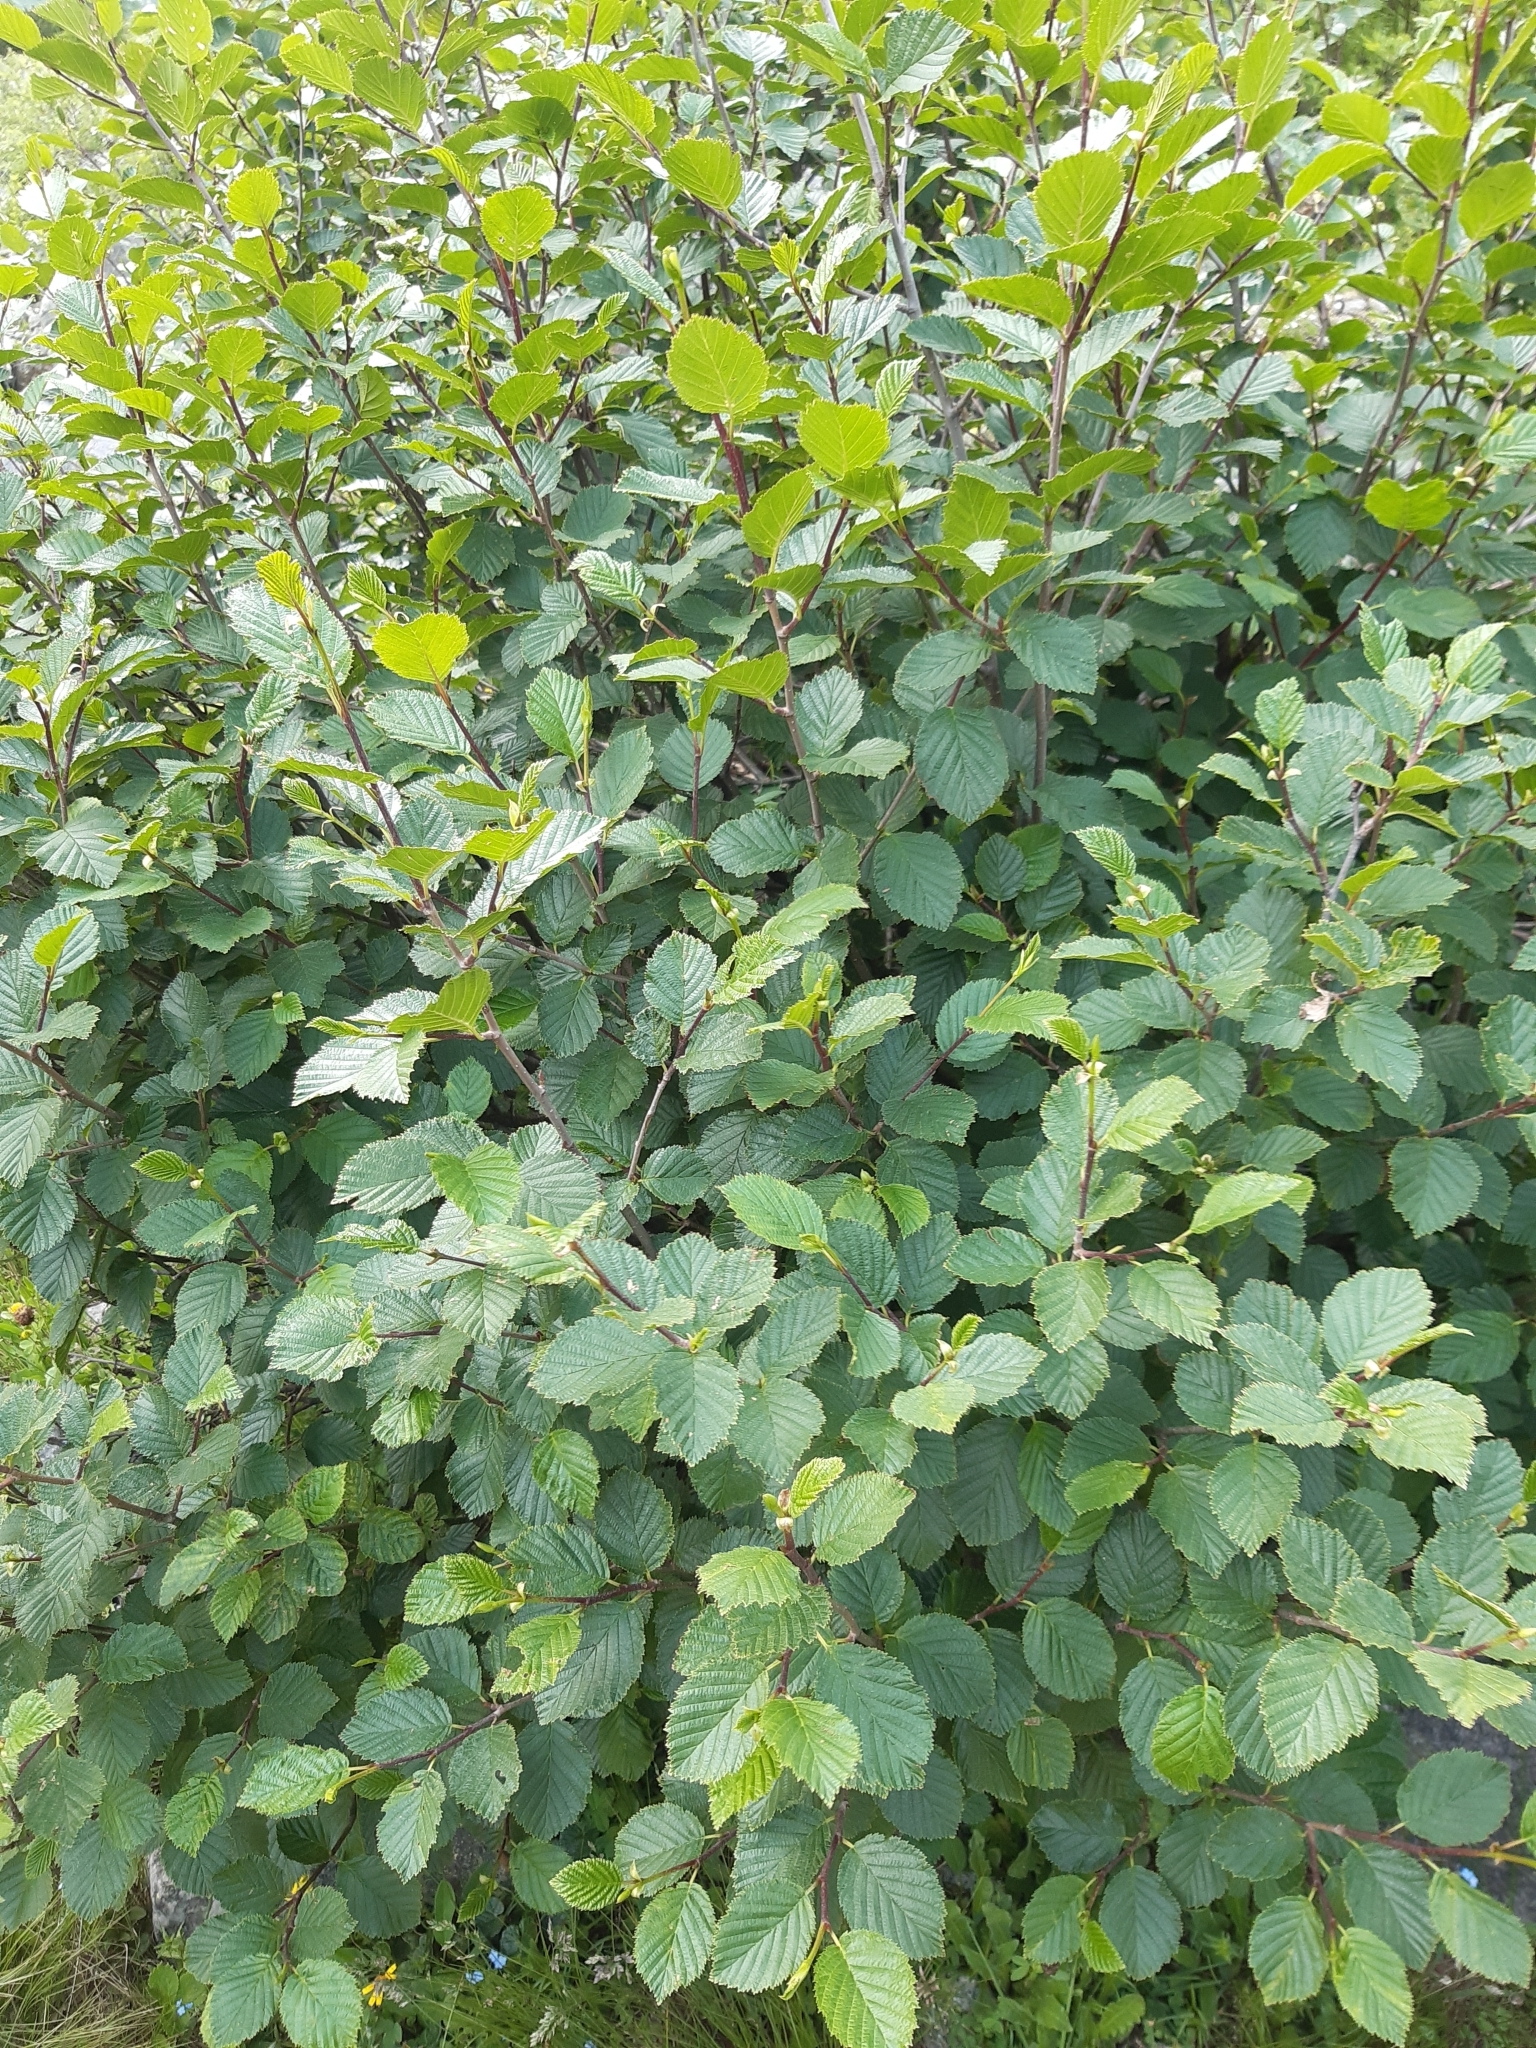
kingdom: Plantae
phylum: Tracheophyta
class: Magnoliopsida
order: Fagales
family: Betulaceae
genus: Alnus
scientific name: Alnus alnobetula
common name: Green alder
